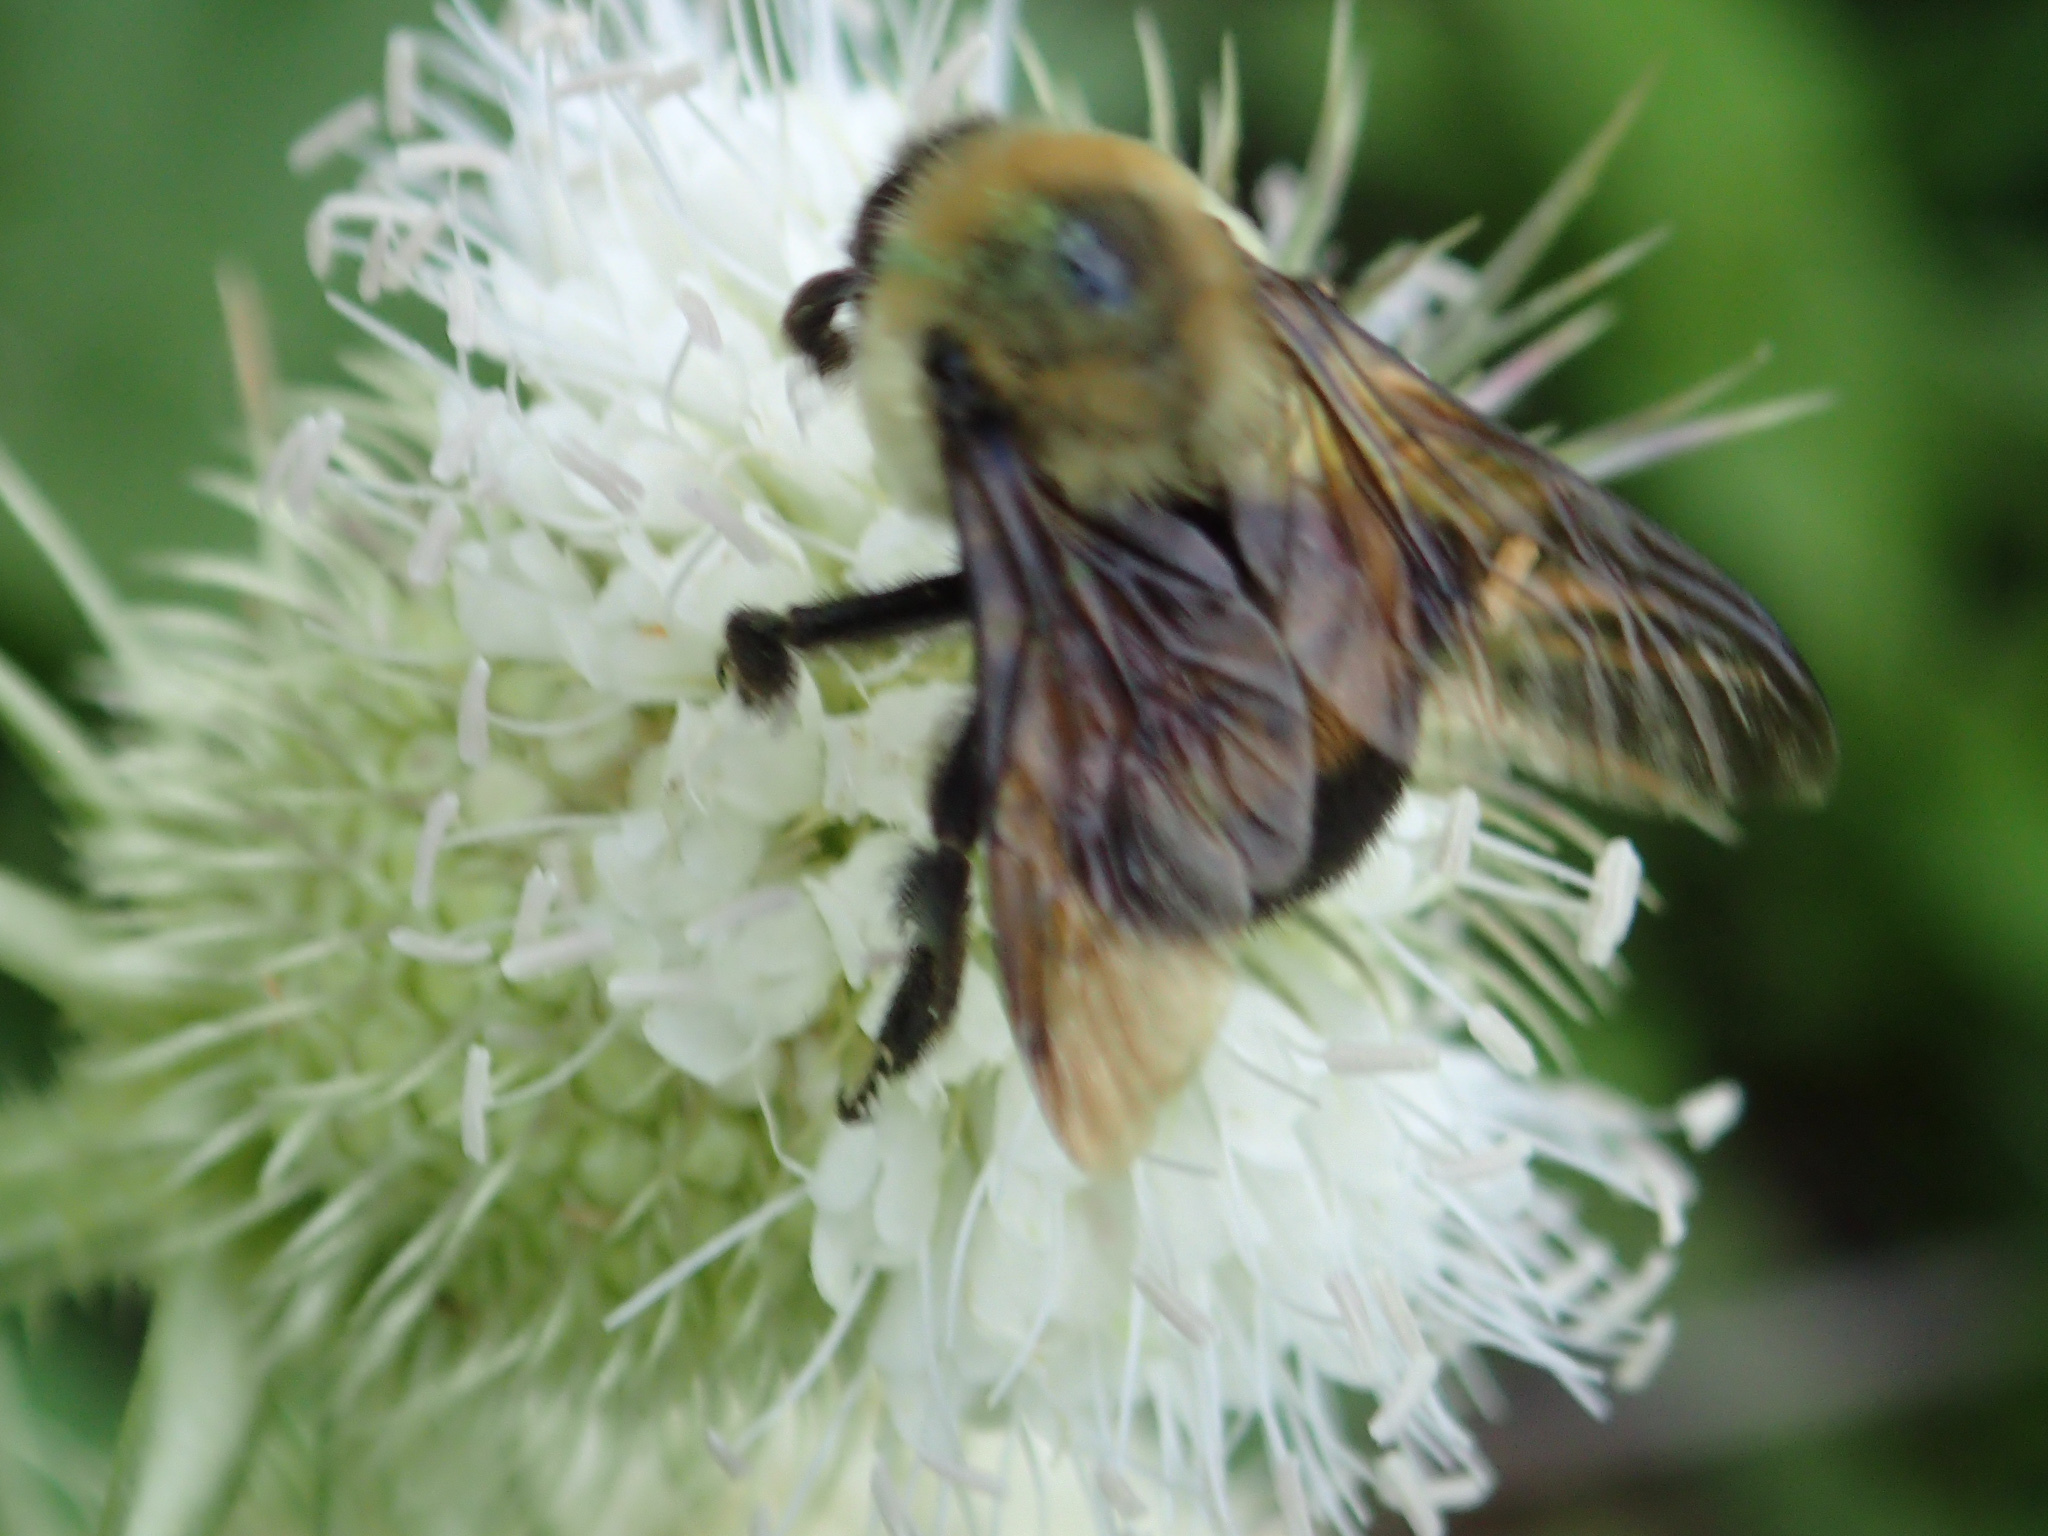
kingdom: Animalia
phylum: Arthropoda
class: Insecta
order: Hymenoptera
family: Apidae
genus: Bombus
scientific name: Bombus griseocollis
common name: Brown-belted bumble bee
